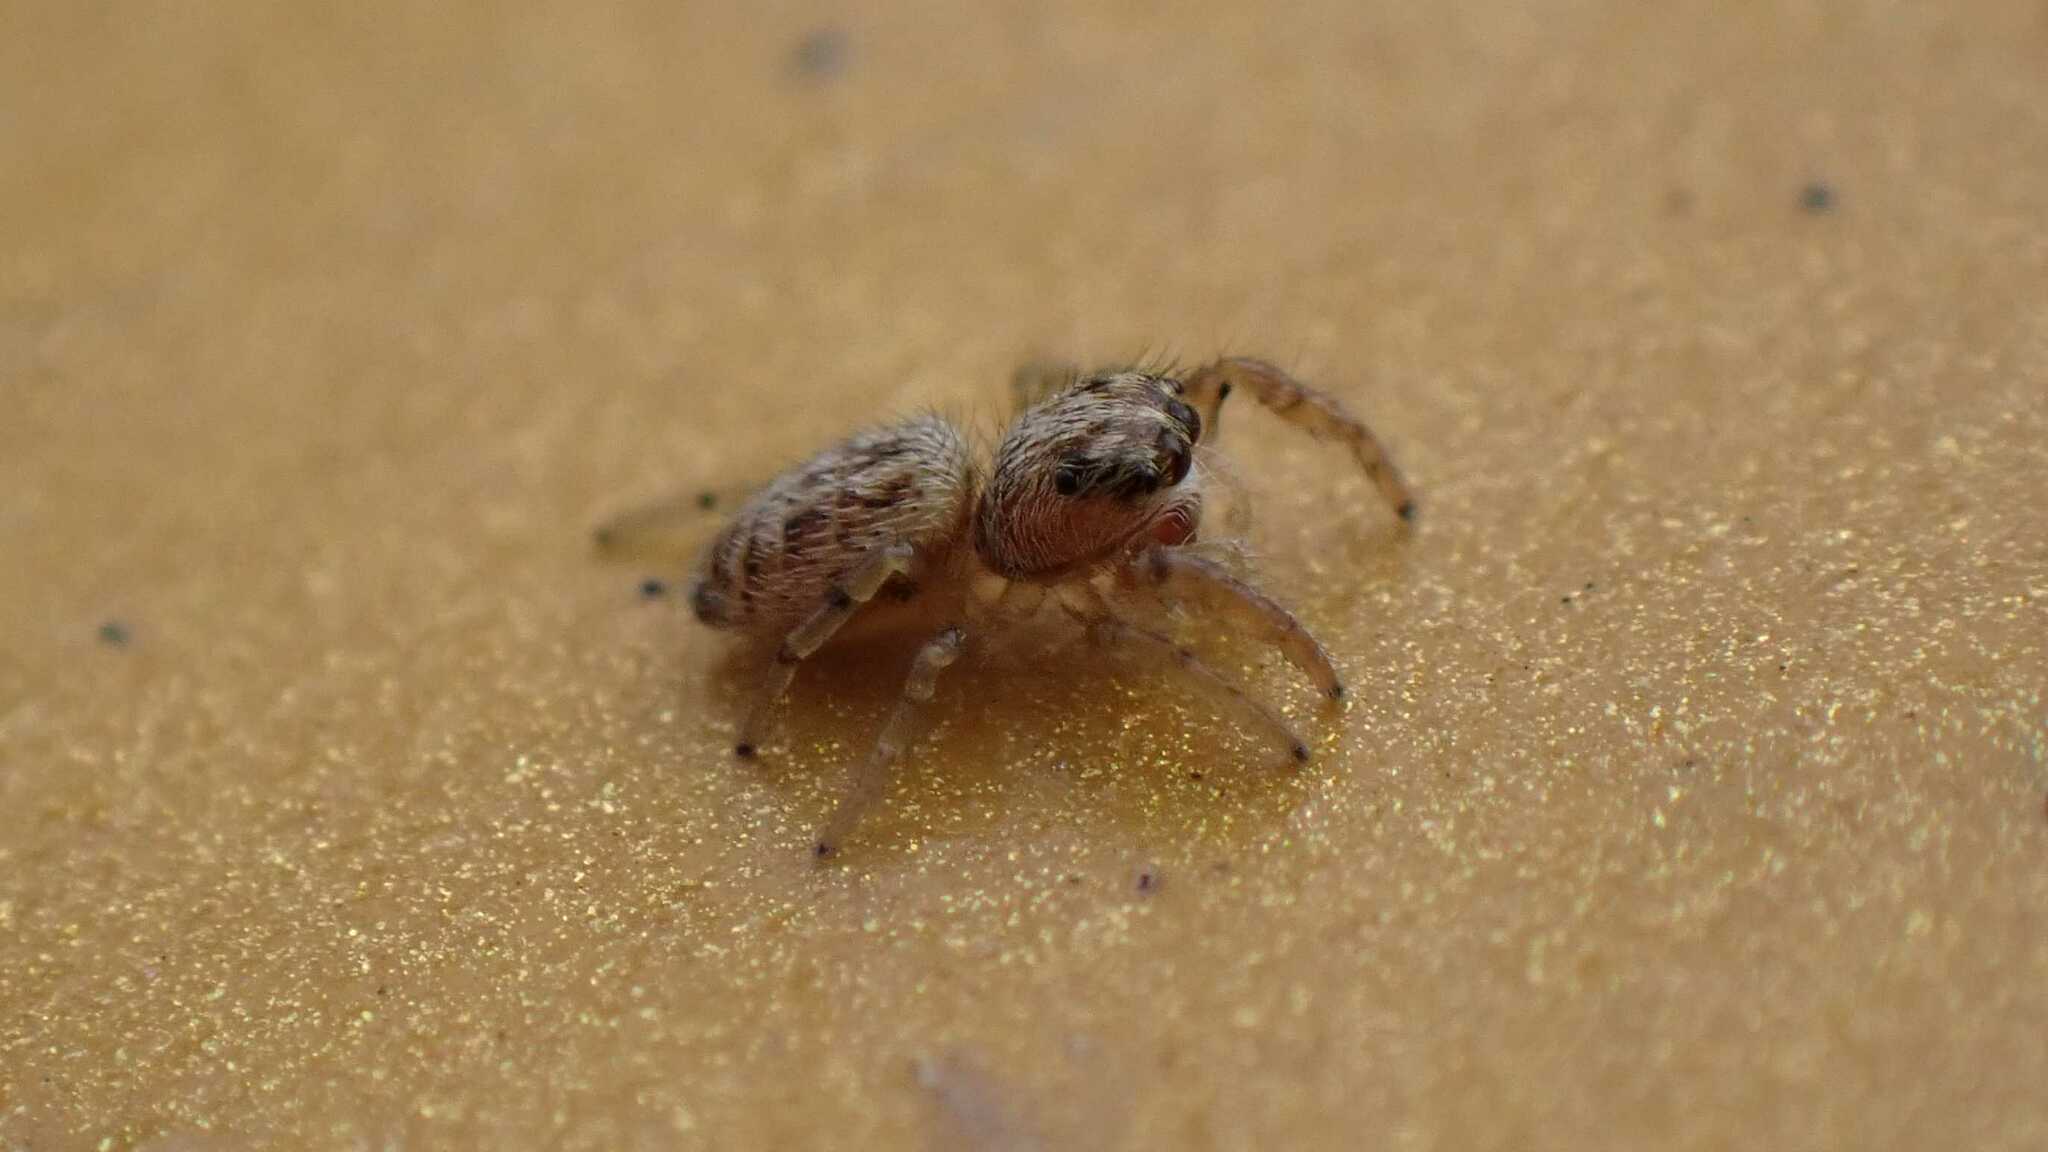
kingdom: Animalia
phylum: Arthropoda
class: Arachnida
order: Araneae
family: Salticidae
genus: Macaroeris
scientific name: Macaroeris nidicolens
